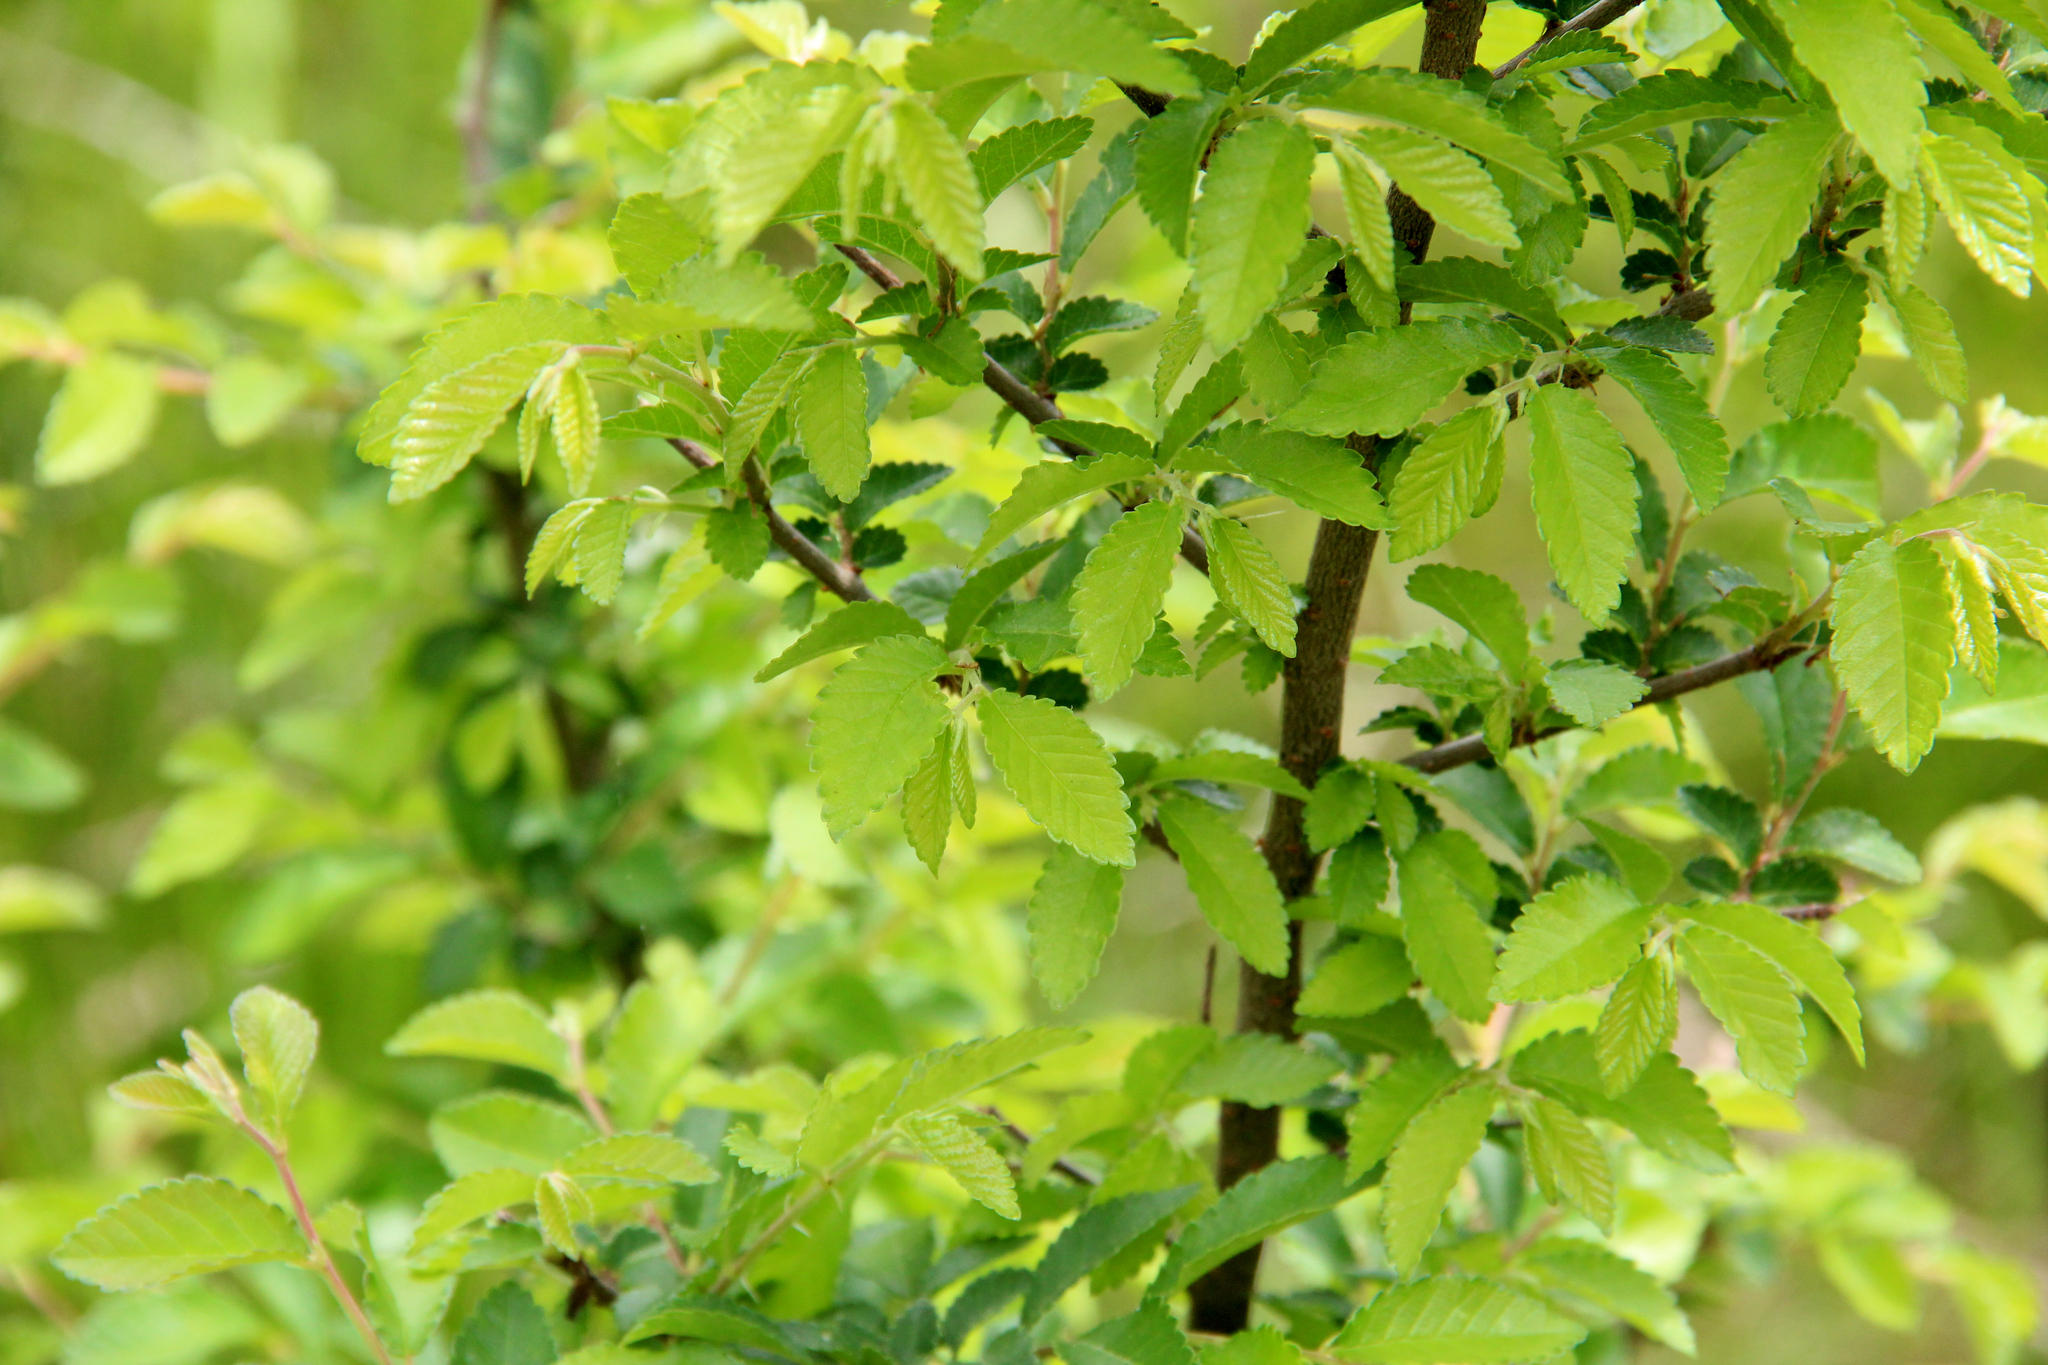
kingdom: Plantae
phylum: Tracheophyta
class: Magnoliopsida
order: Rosales
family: Ulmaceae
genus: Ulmus
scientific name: Ulmus parvifolia
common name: Chinese elm
